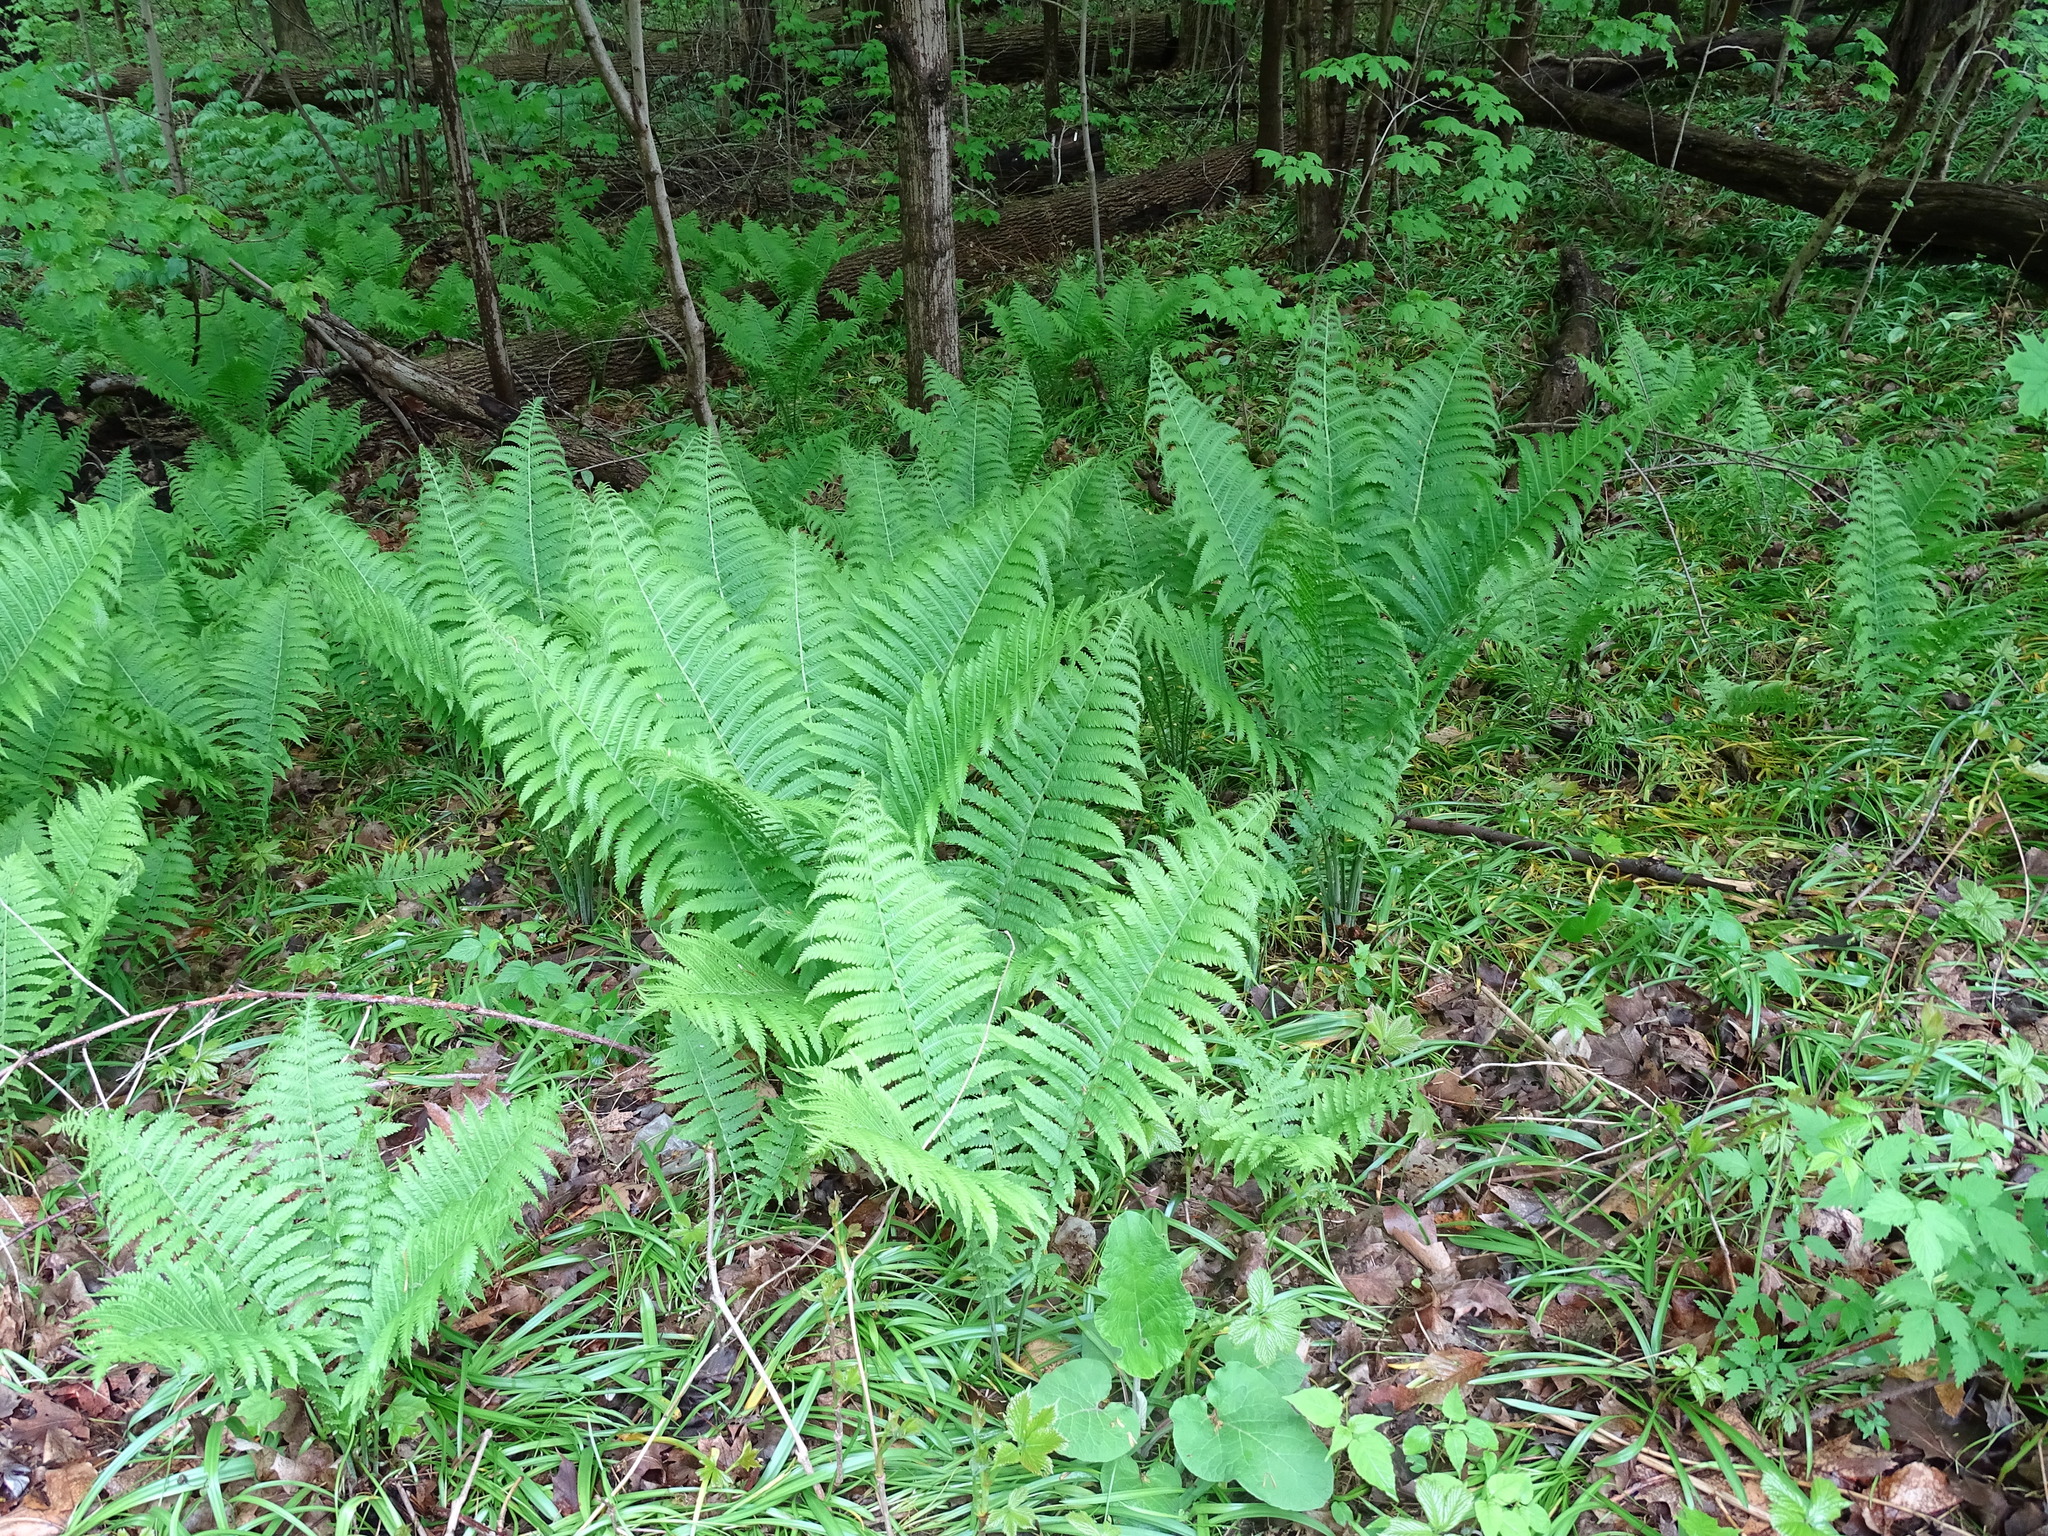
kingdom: Plantae
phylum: Tracheophyta
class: Polypodiopsida
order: Polypodiales
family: Onocleaceae
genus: Matteuccia
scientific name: Matteuccia struthiopteris
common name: Ostrich fern
